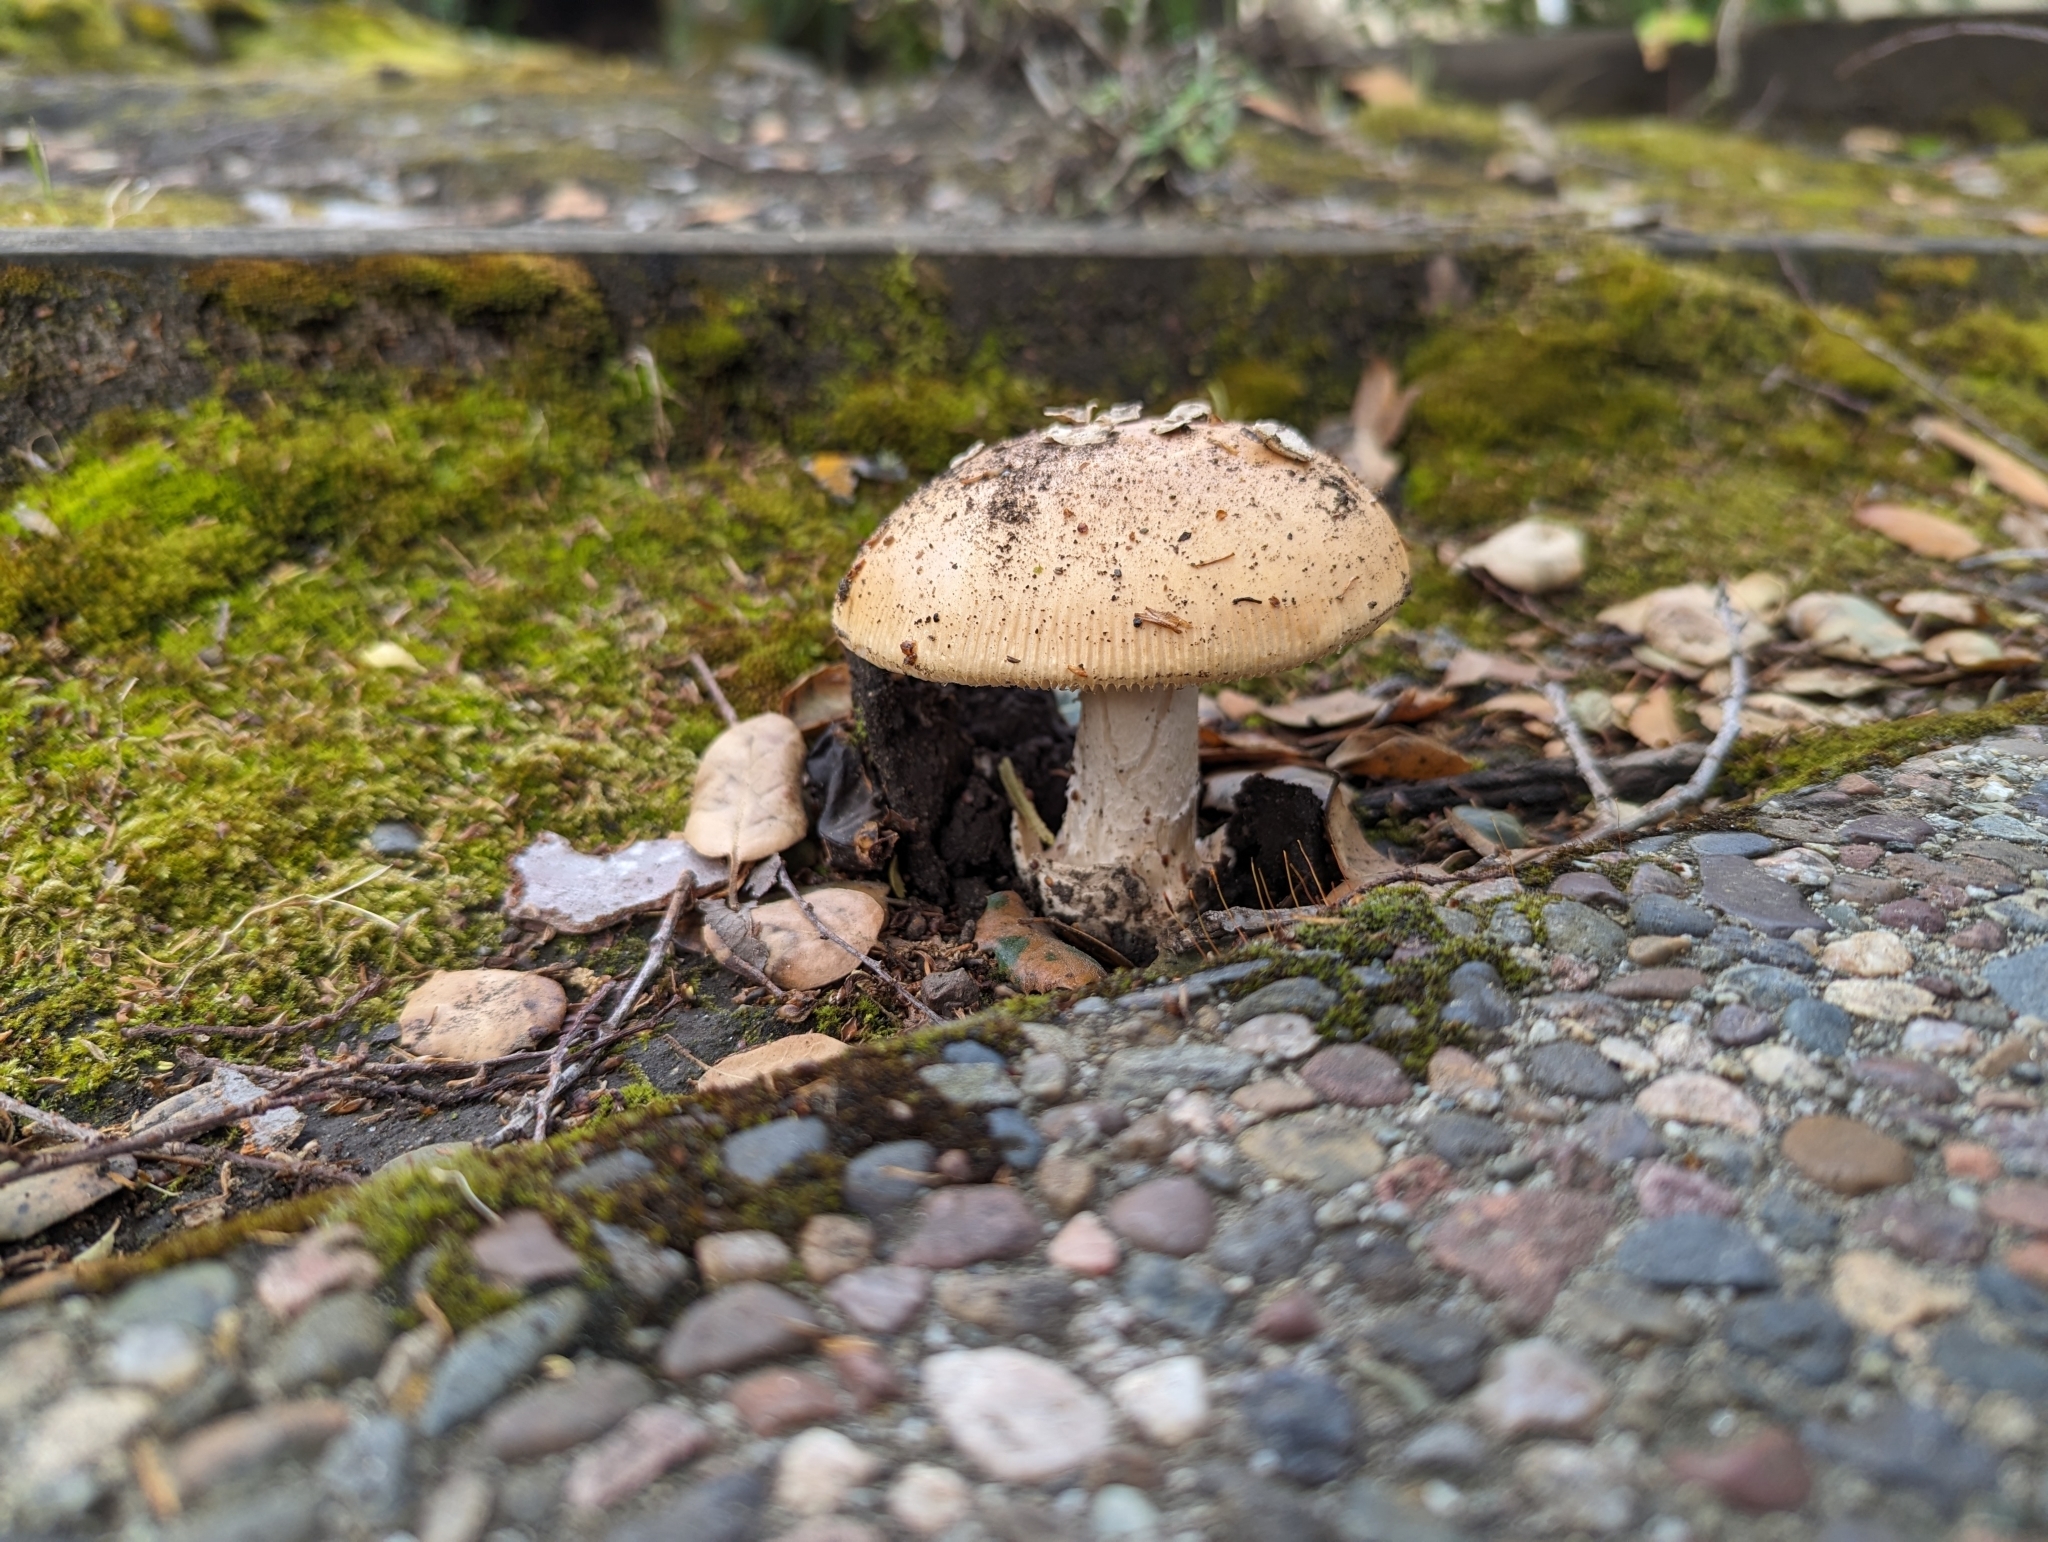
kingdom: Fungi
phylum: Basidiomycota
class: Agaricomycetes
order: Agaricales
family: Amanitaceae
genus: Amanita
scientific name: Amanita velosa
